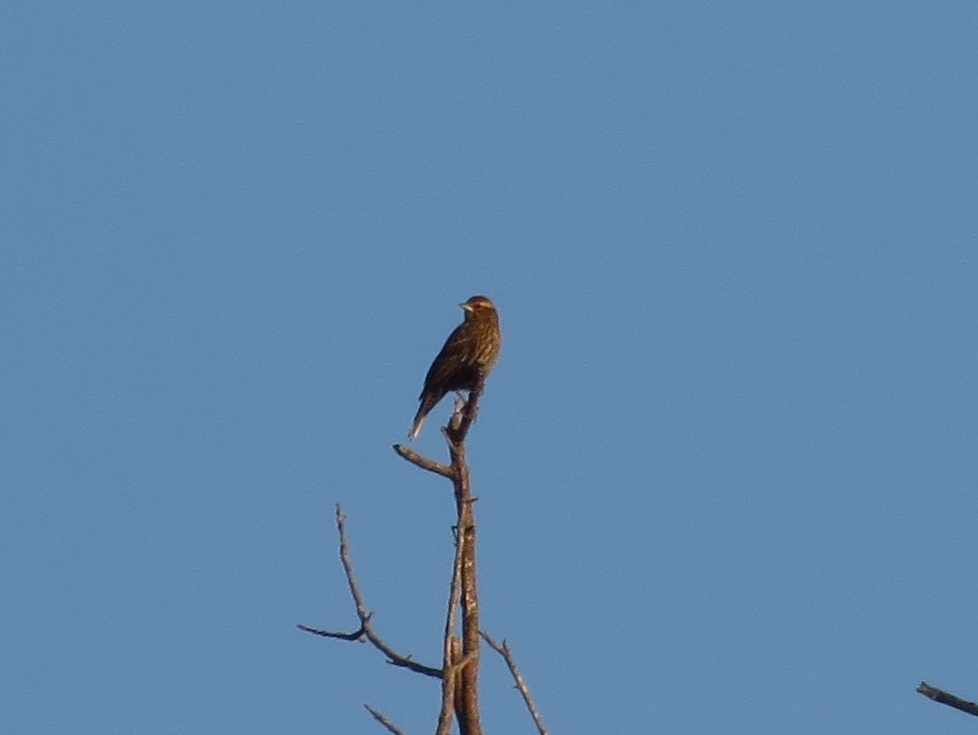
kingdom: Animalia
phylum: Chordata
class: Aves
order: Passeriformes
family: Icteridae
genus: Agelaius
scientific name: Agelaius phoeniceus
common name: Red-winged blackbird
